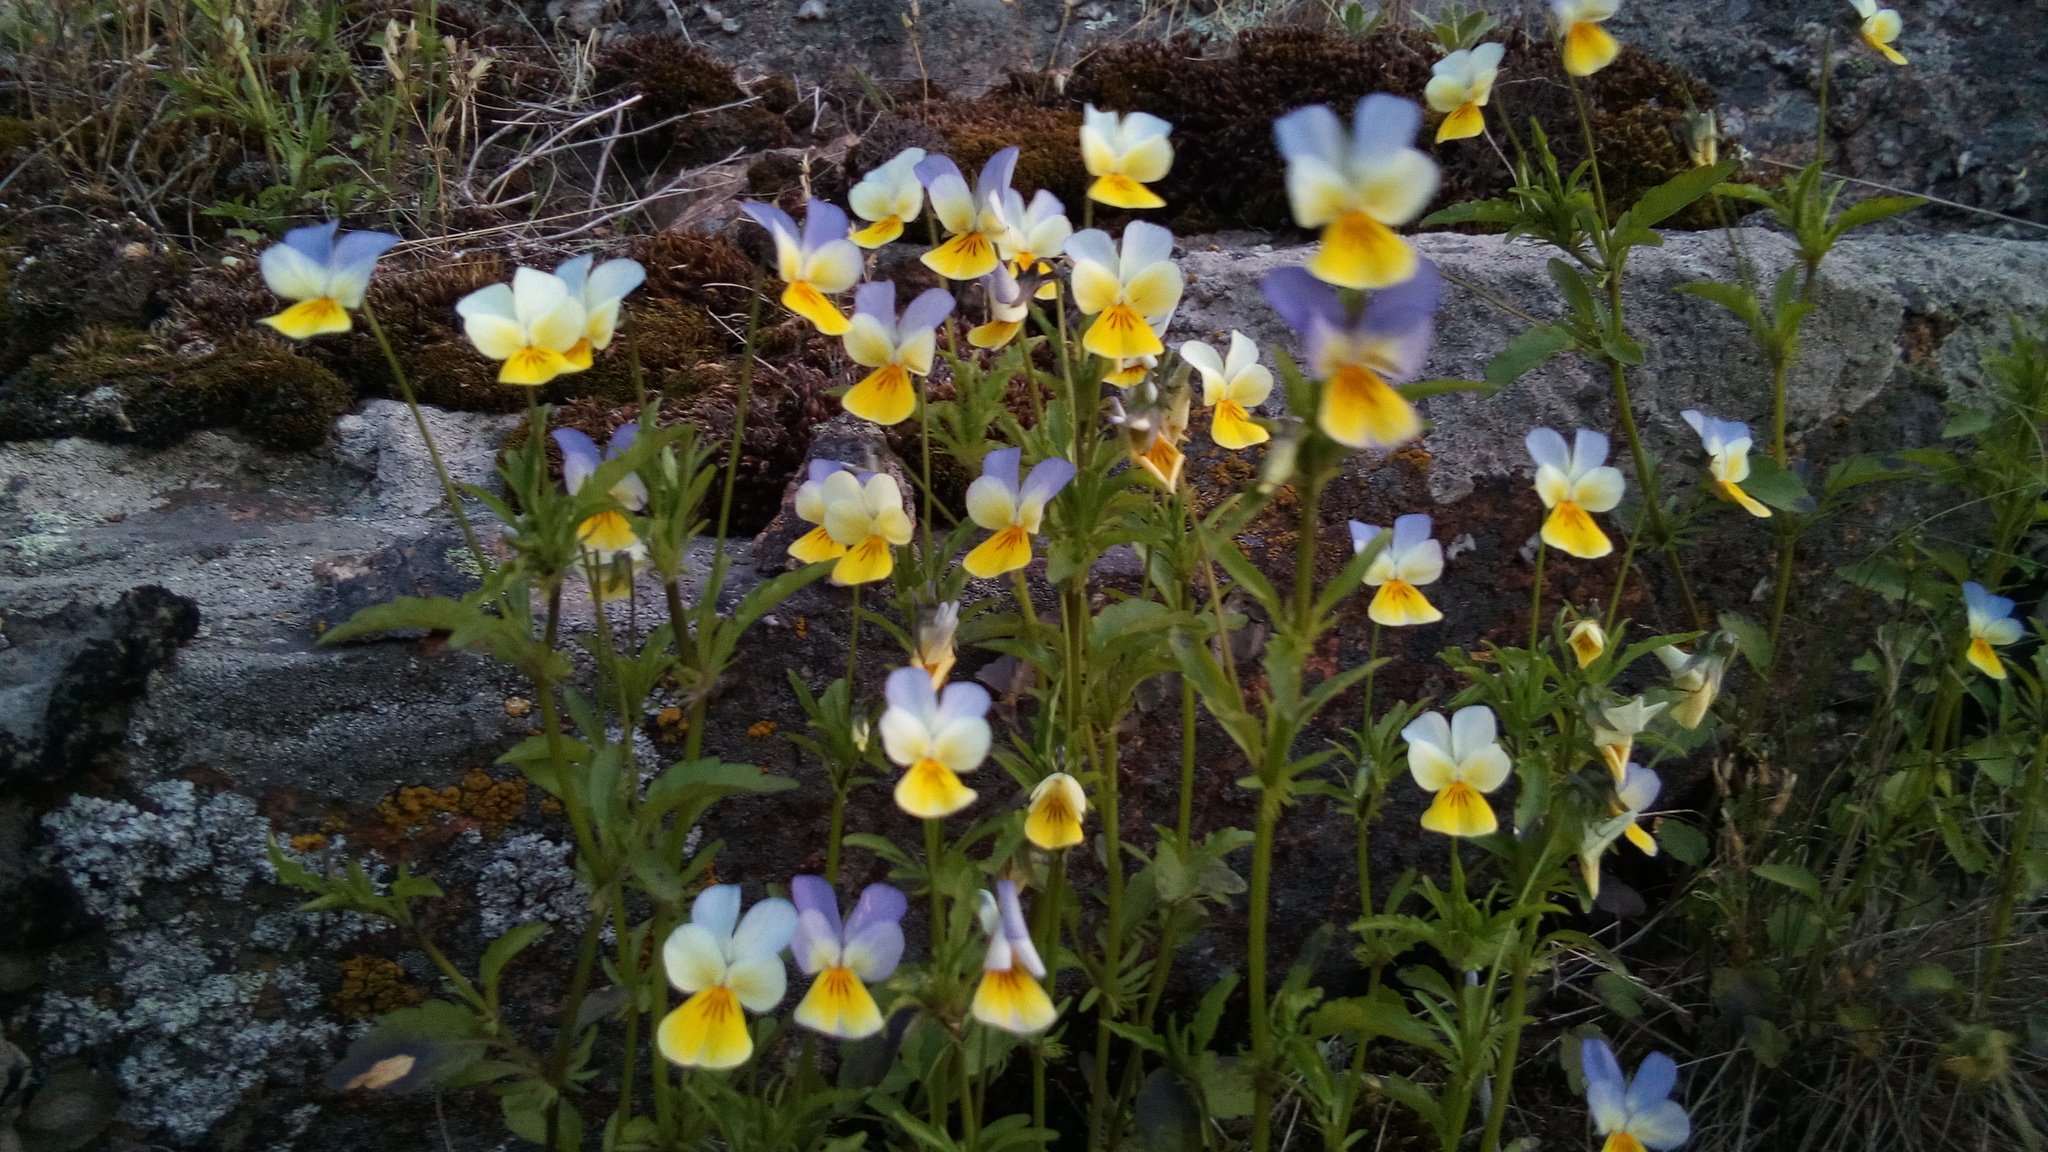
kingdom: Plantae
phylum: Tracheophyta
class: Magnoliopsida
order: Malpighiales
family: Violaceae
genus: Viola
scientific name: Viola tricolor
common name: Pansy
